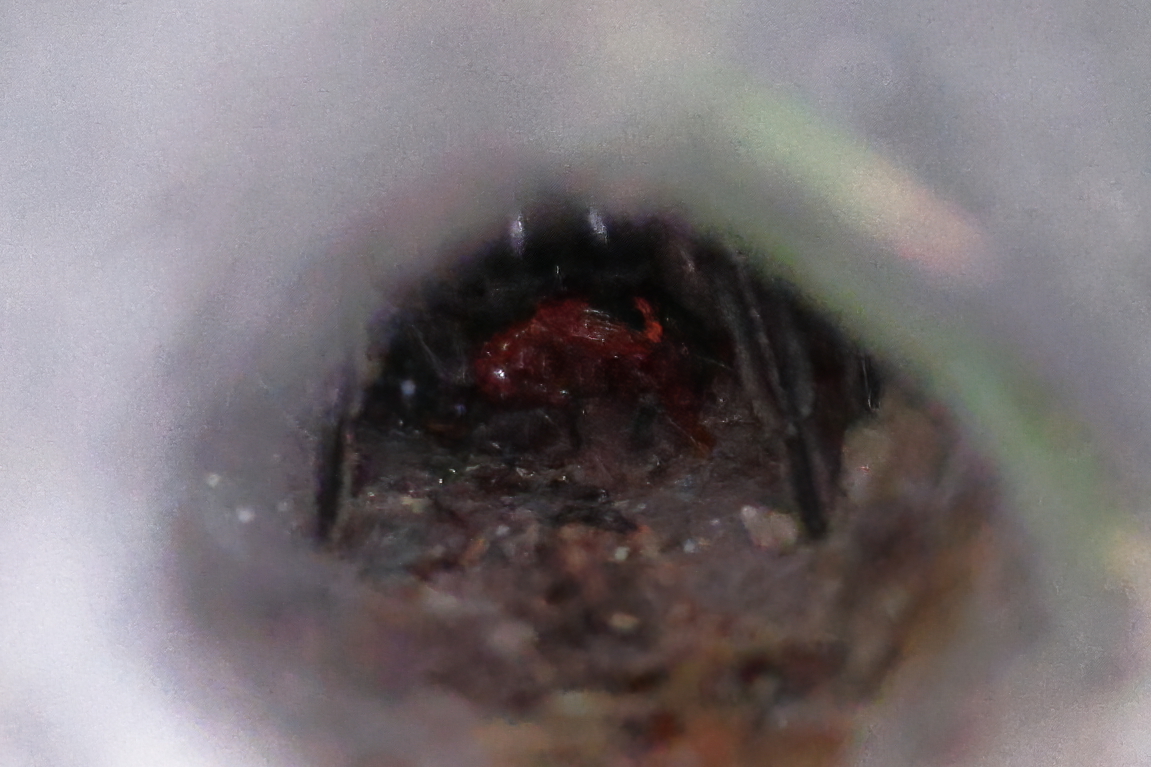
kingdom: Animalia
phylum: Arthropoda
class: Arachnida
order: Araneae
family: Lycosidae
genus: Sosippus
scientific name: Sosippus mimus
